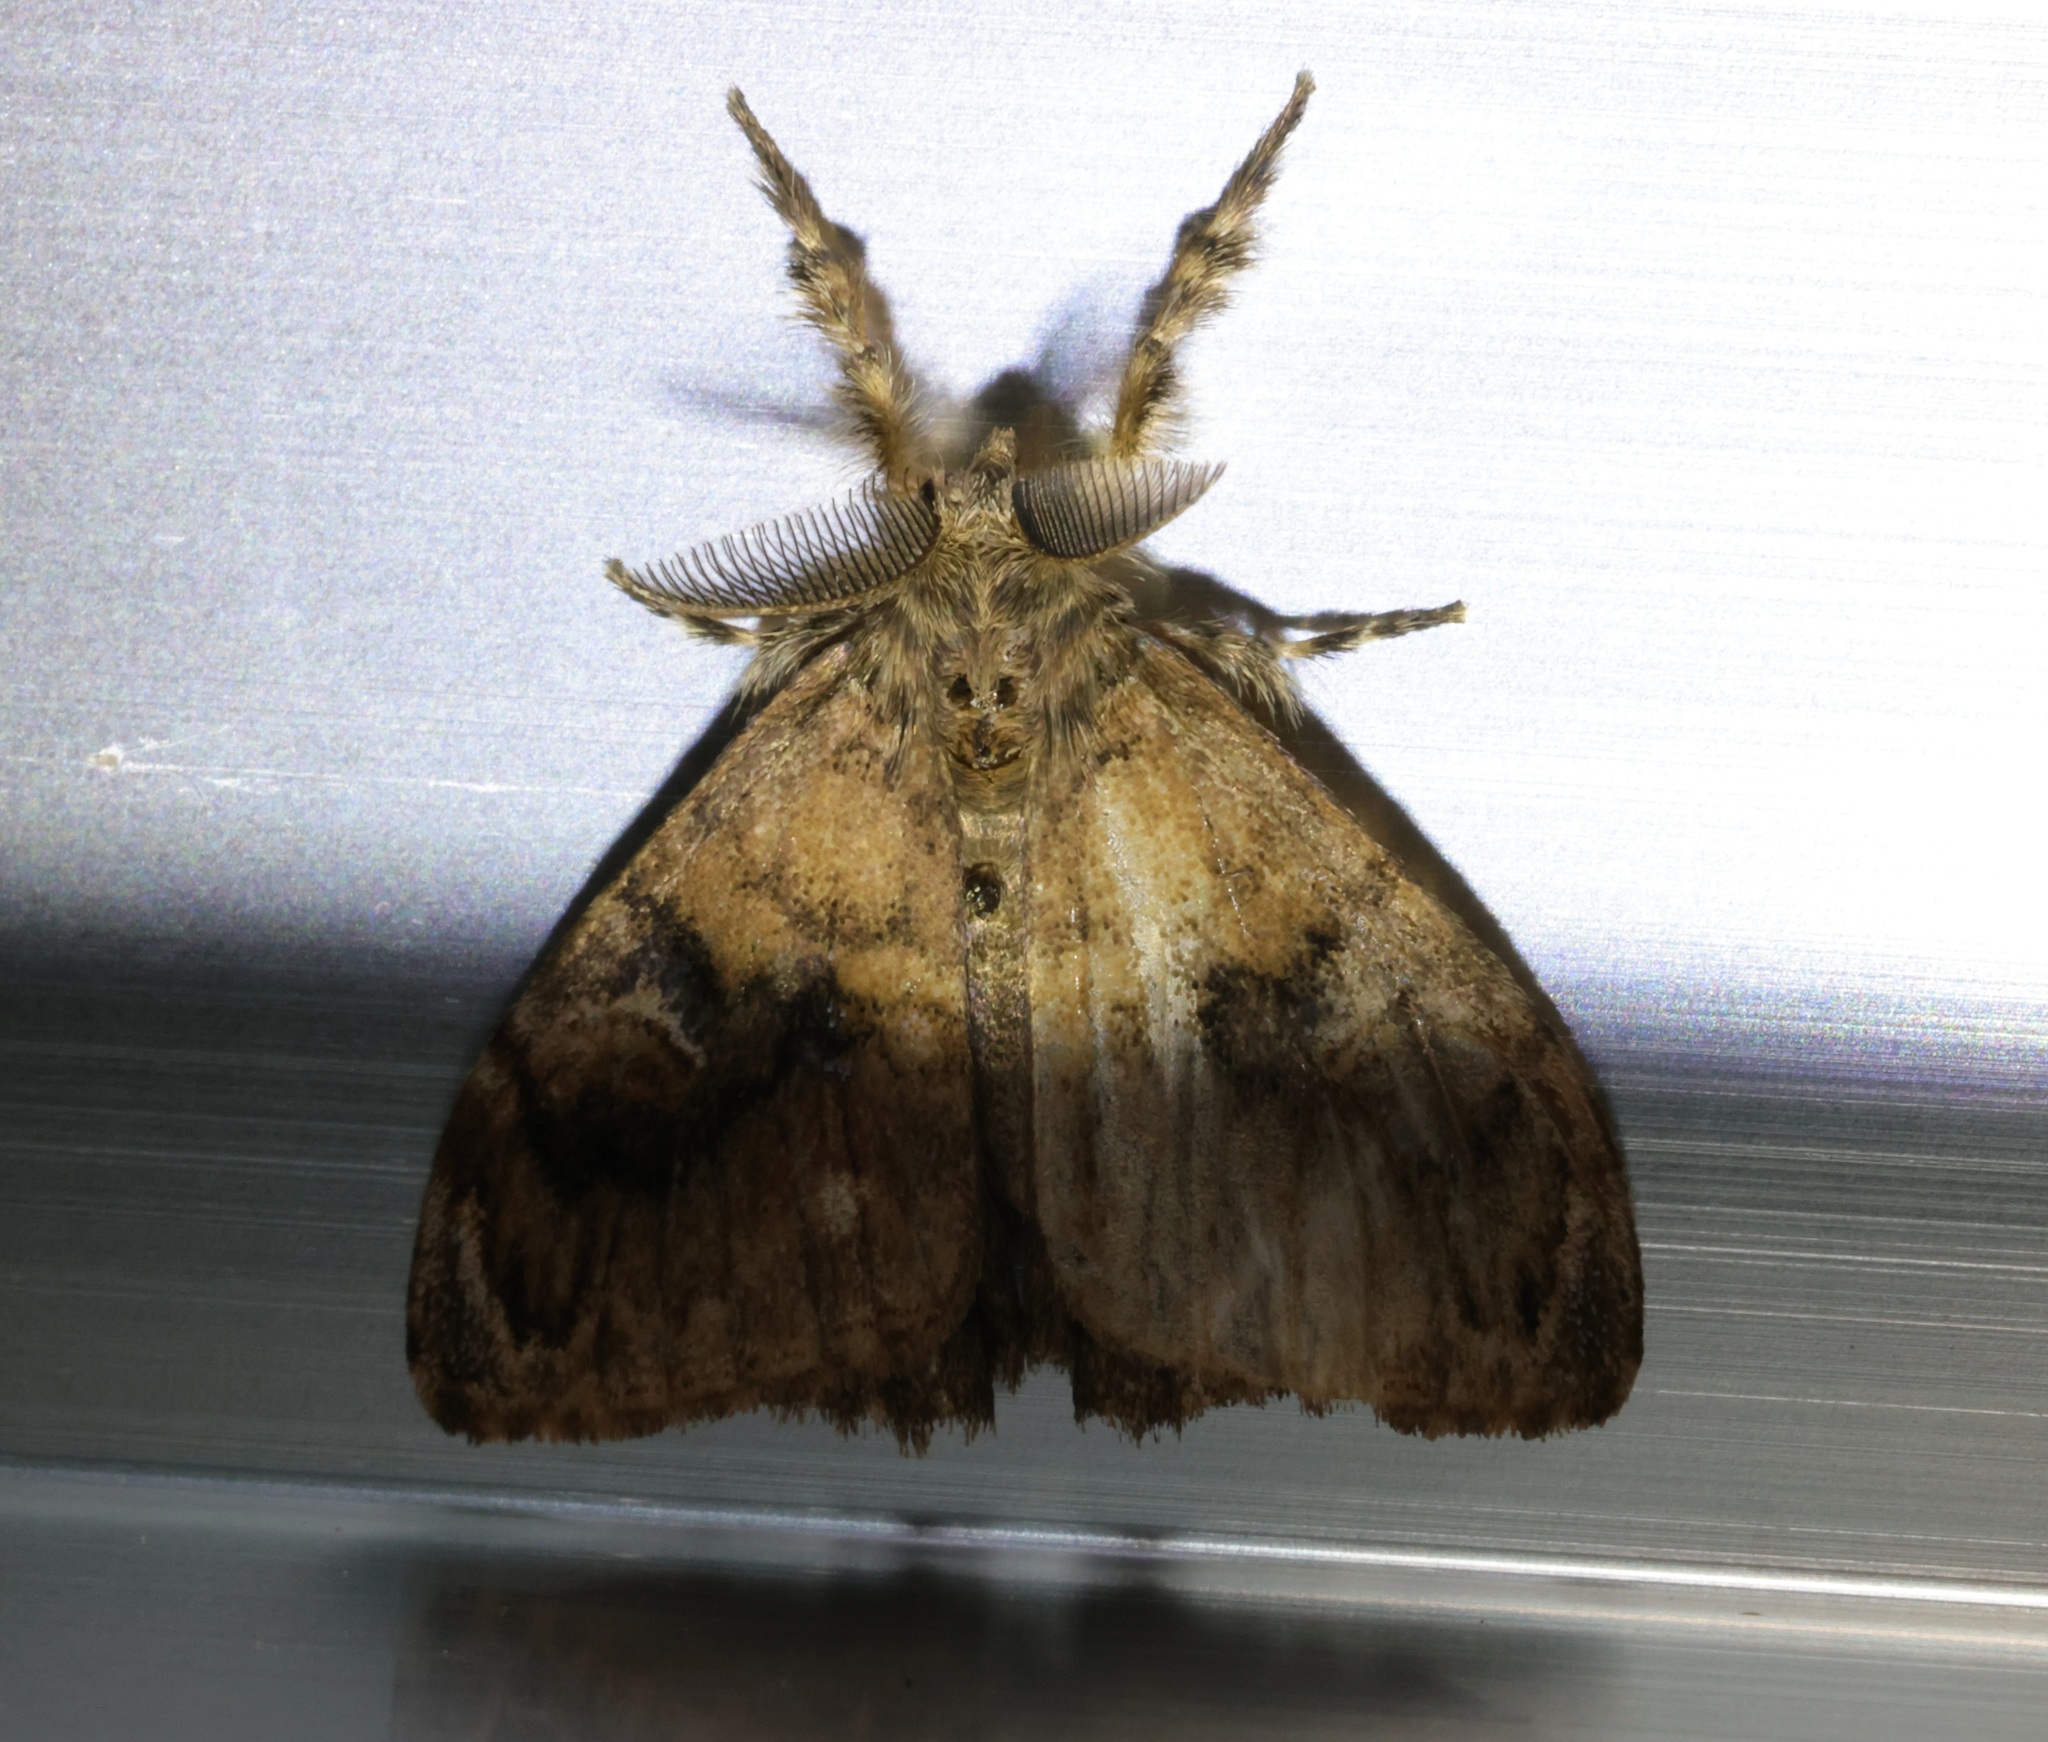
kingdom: Animalia
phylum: Arthropoda
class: Insecta
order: Lepidoptera
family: Erebidae
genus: Orgyia
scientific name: Orgyia postica
